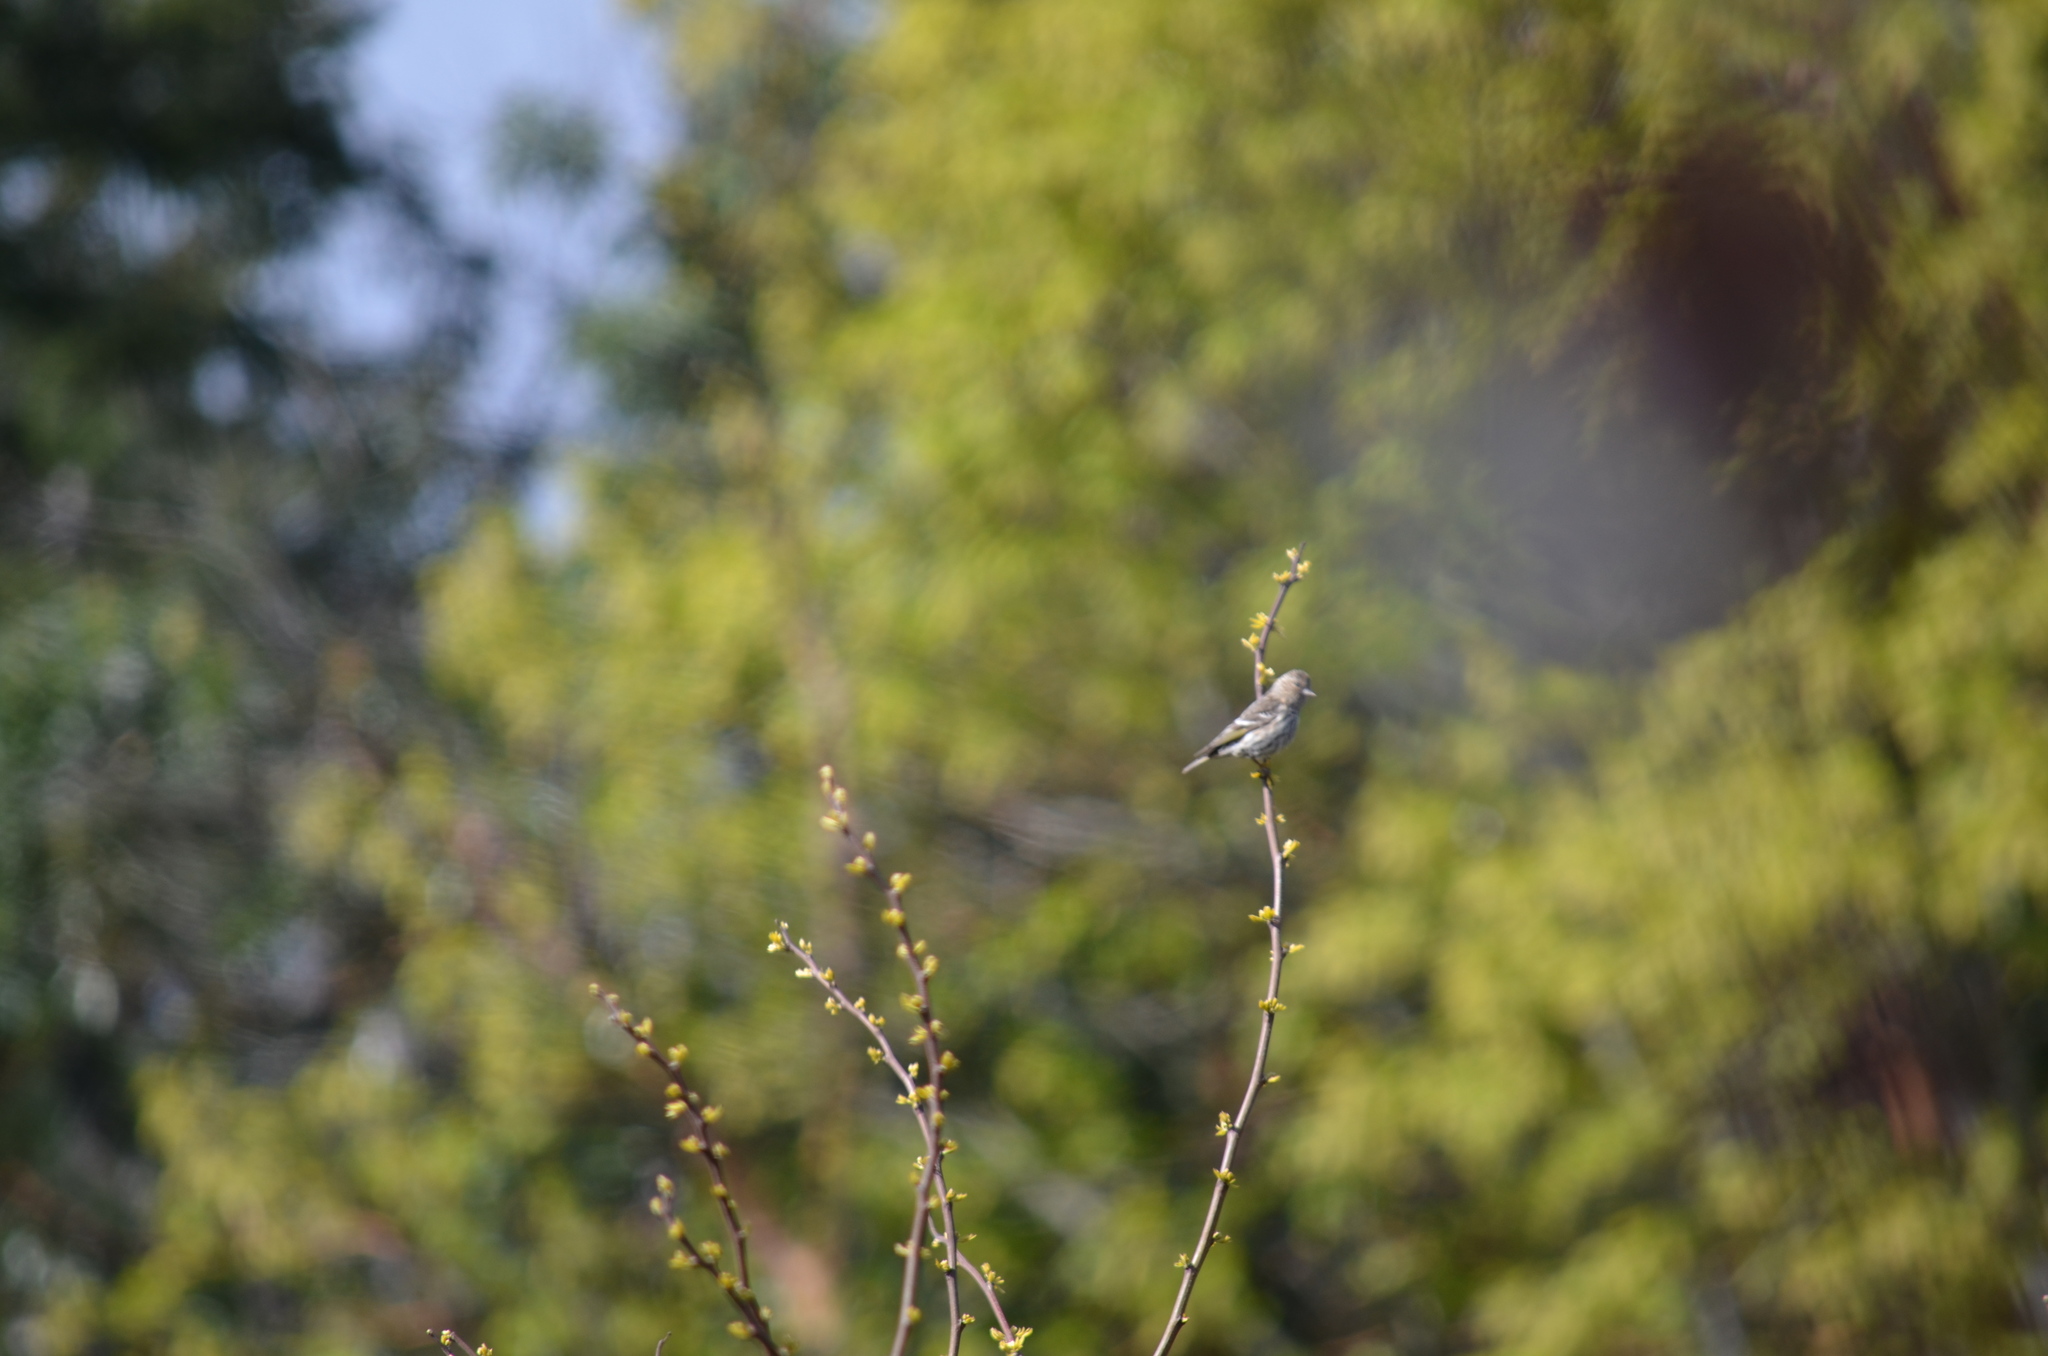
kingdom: Animalia
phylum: Chordata
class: Aves
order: Passeriformes
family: Fringillidae
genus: Spinus
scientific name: Spinus pinus
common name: Pine siskin
